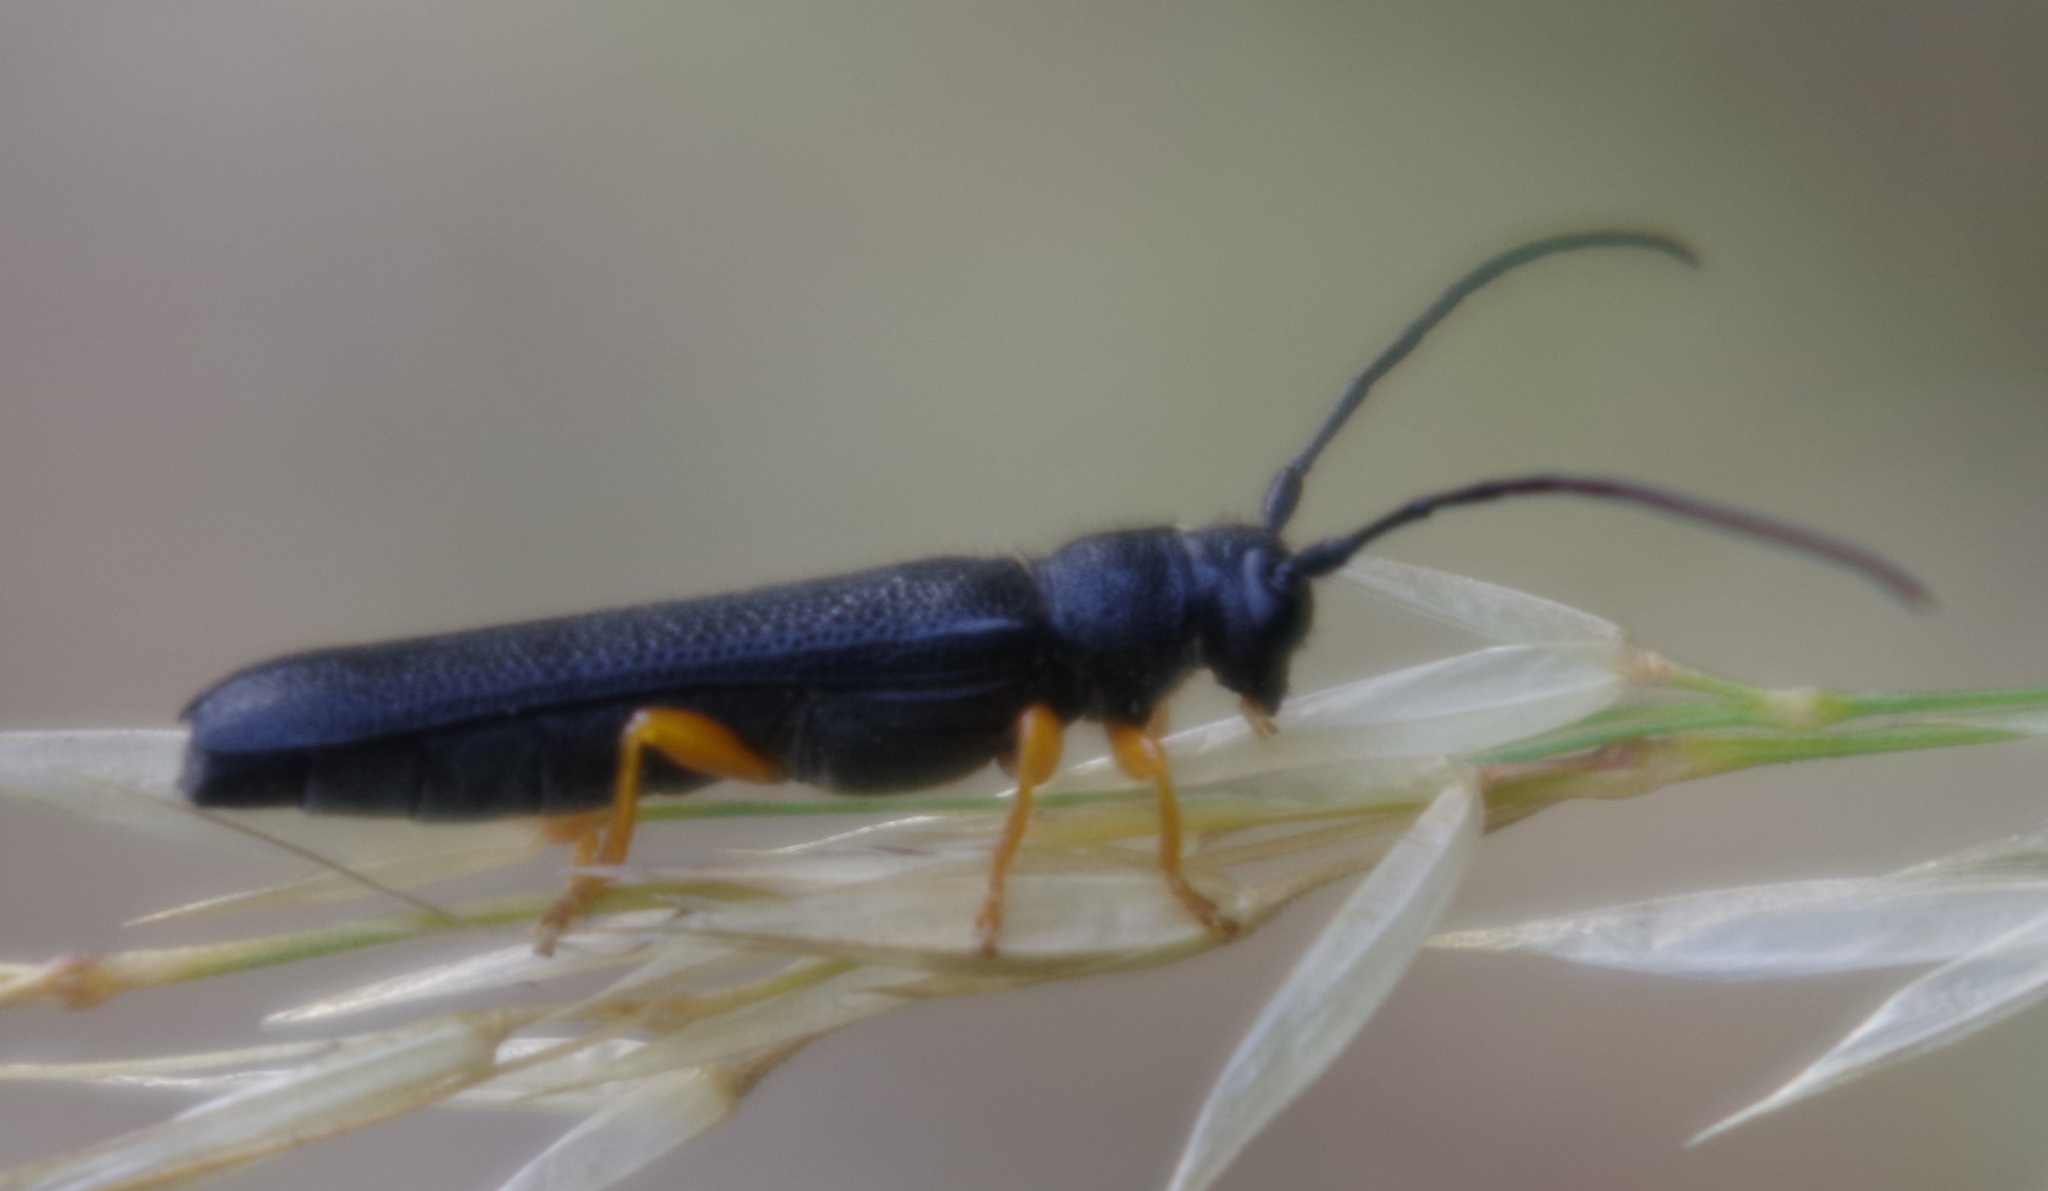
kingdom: Animalia
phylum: Arthropoda
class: Insecta
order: Coleoptera
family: Cerambycidae
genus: Oberea
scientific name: Oberea linearis
